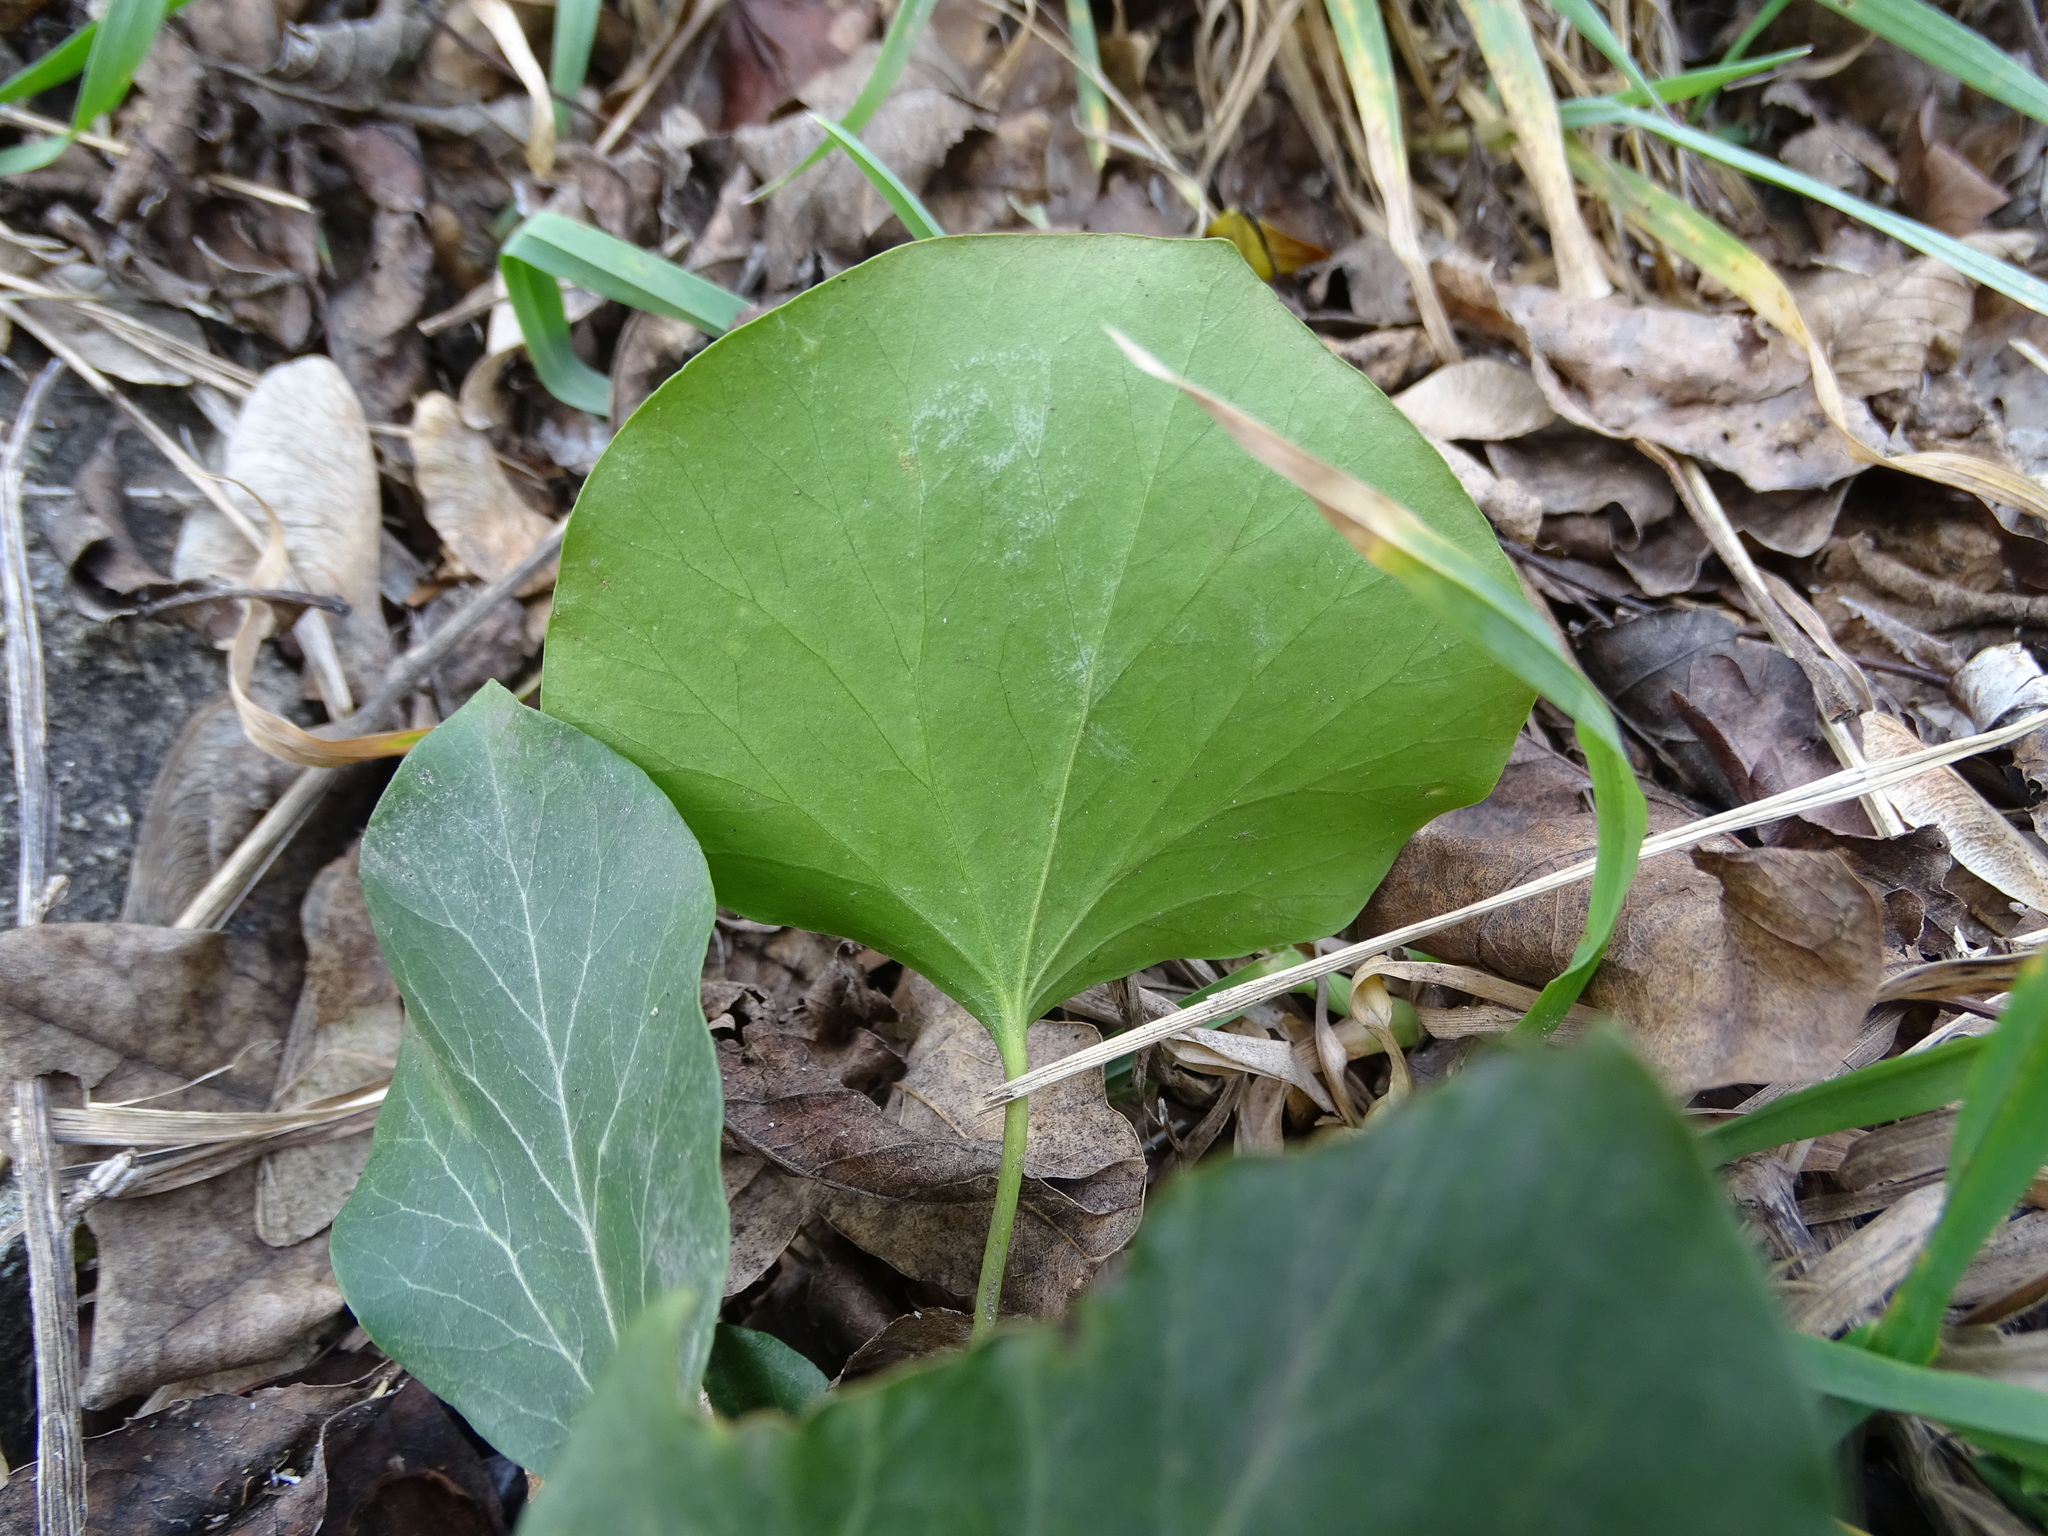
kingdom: Plantae
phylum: Tracheophyta
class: Magnoliopsida
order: Apiales
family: Araliaceae
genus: Hedera
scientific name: Hedera helix
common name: Ivy
